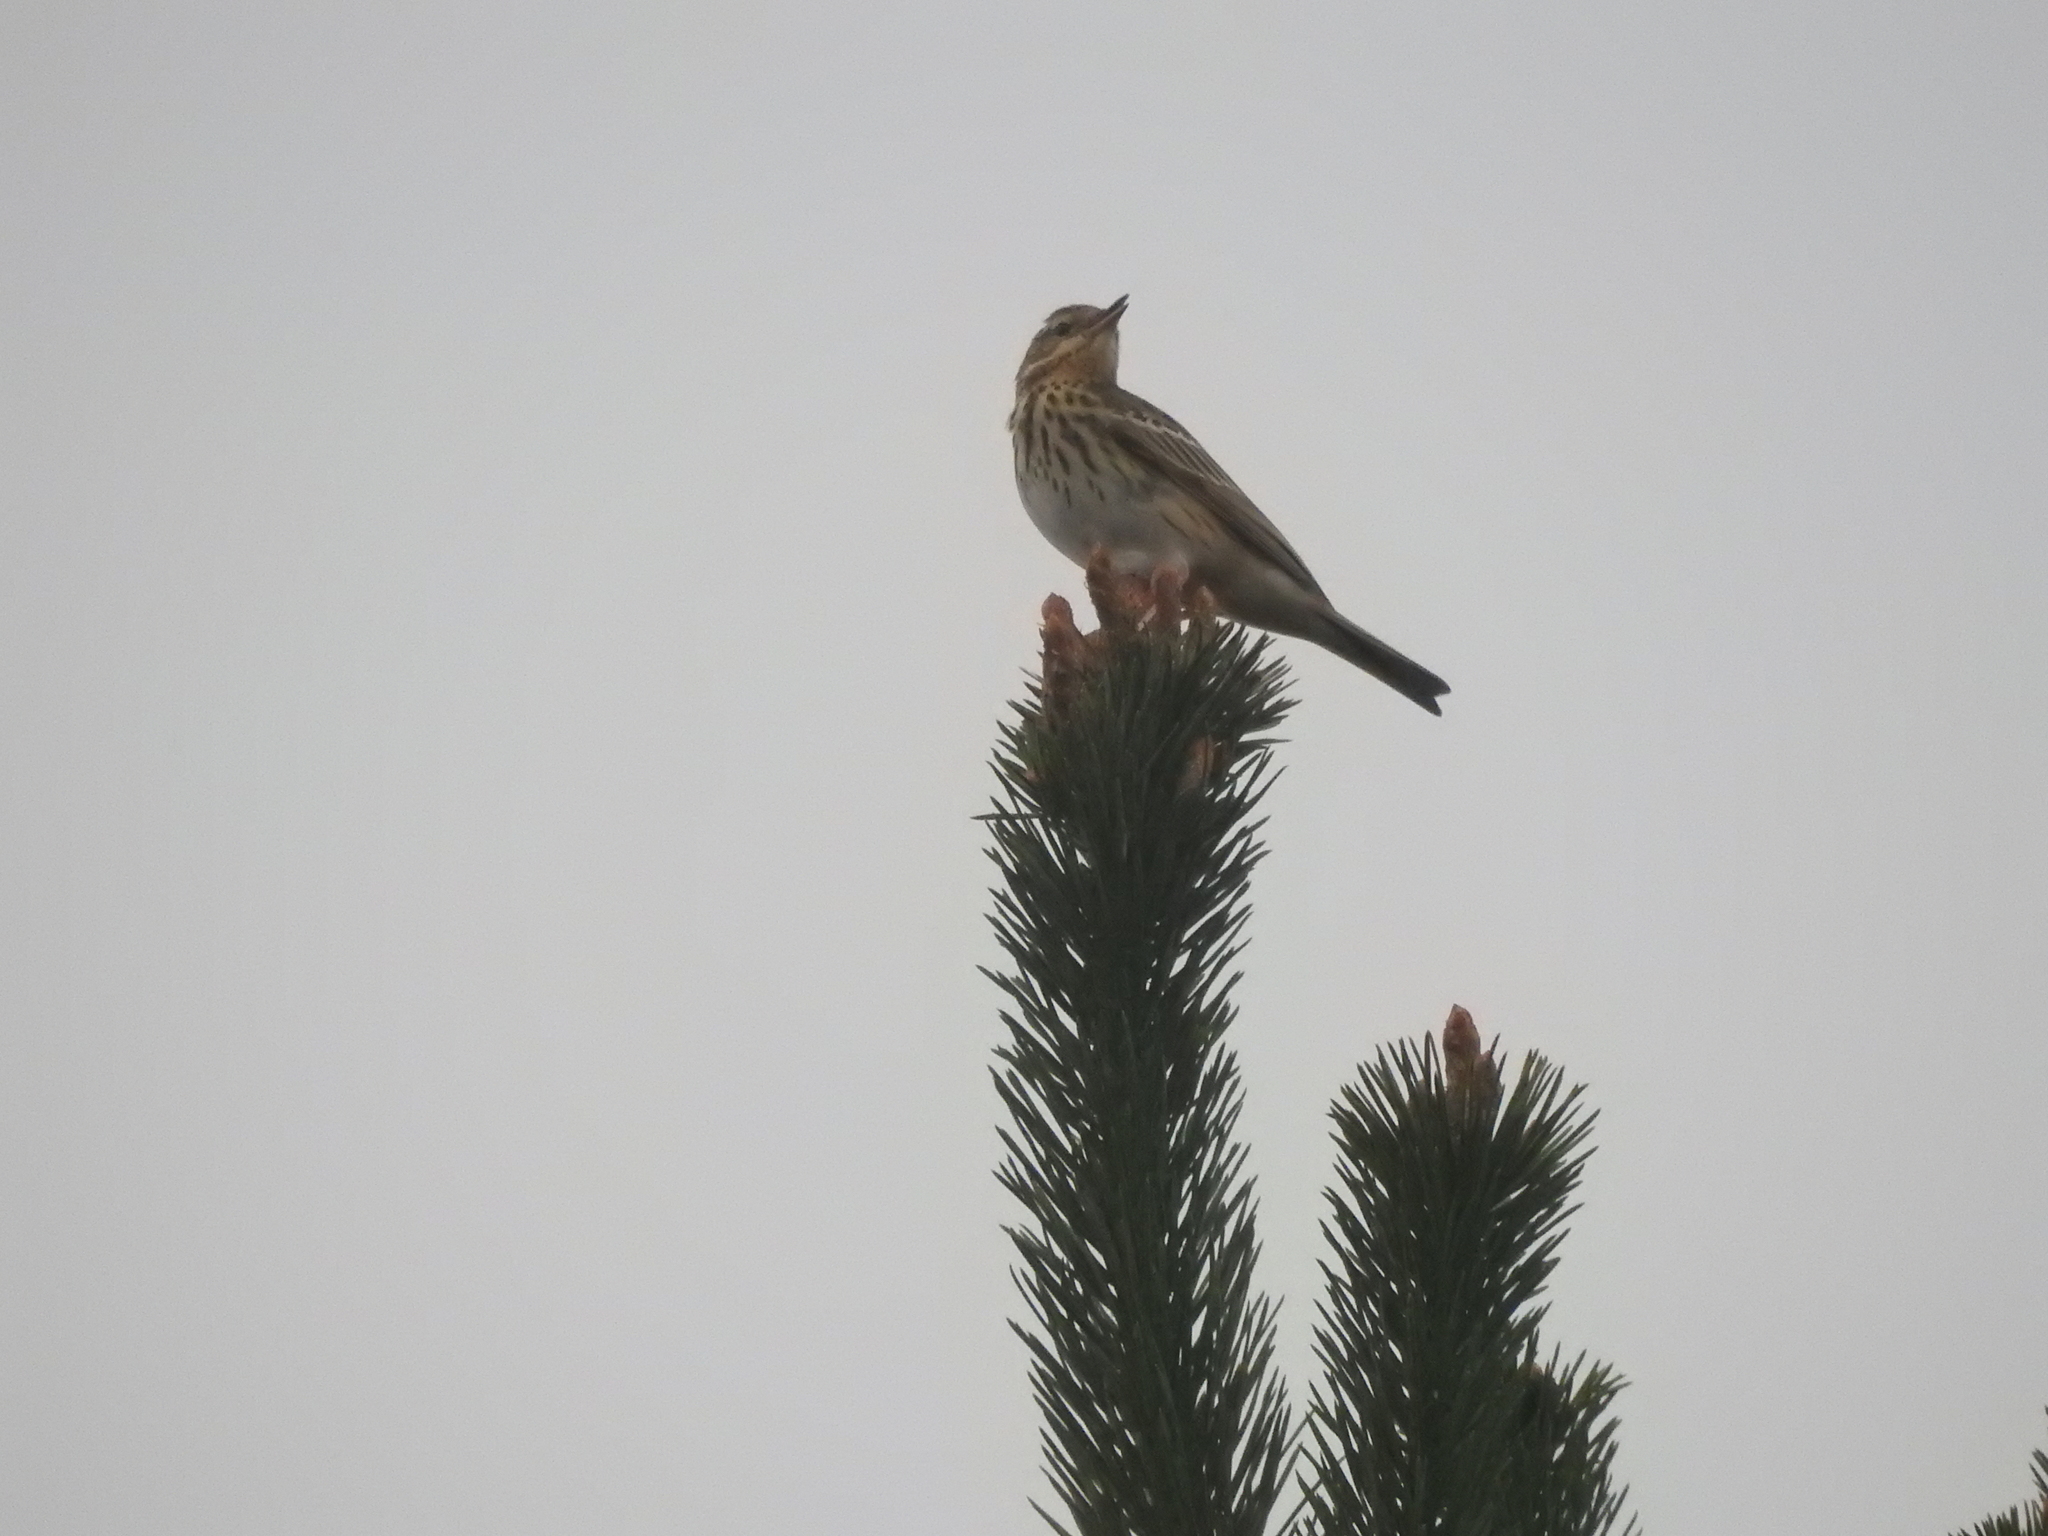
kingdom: Animalia
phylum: Chordata
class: Aves
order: Passeriformes
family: Motacillidae
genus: Anthus
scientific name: Anthus trivialis
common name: Tree pipit
